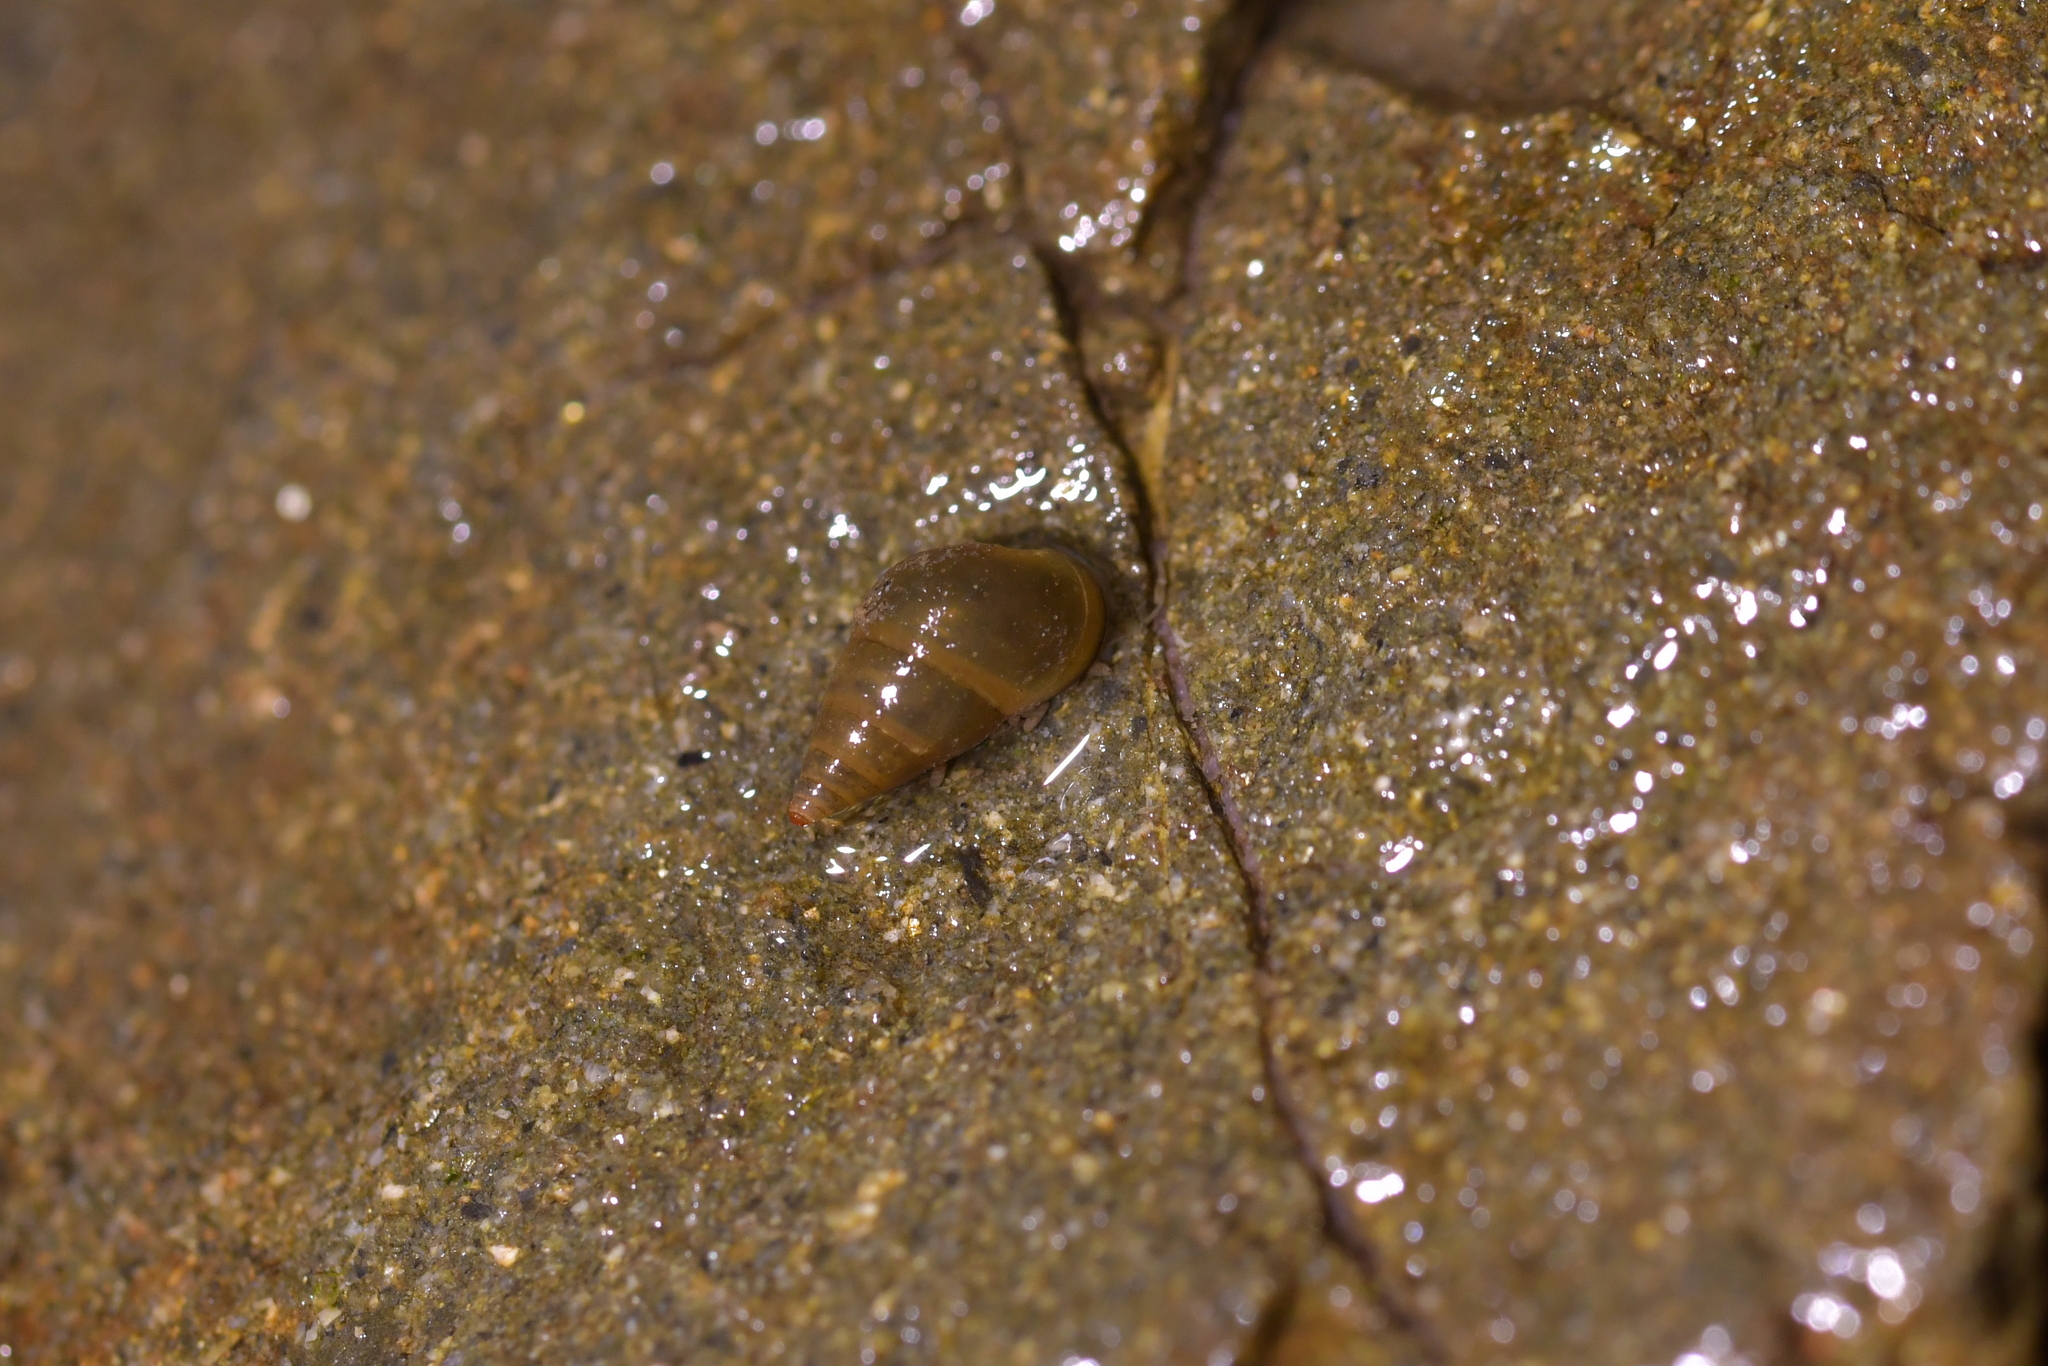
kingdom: Animalia
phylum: Mollusca
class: Gastropoda
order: Littorinimorpha
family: Tateidae
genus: Potamopyrgus
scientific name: Potamopyrgus antipodarum
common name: Jenkins' spire snail
